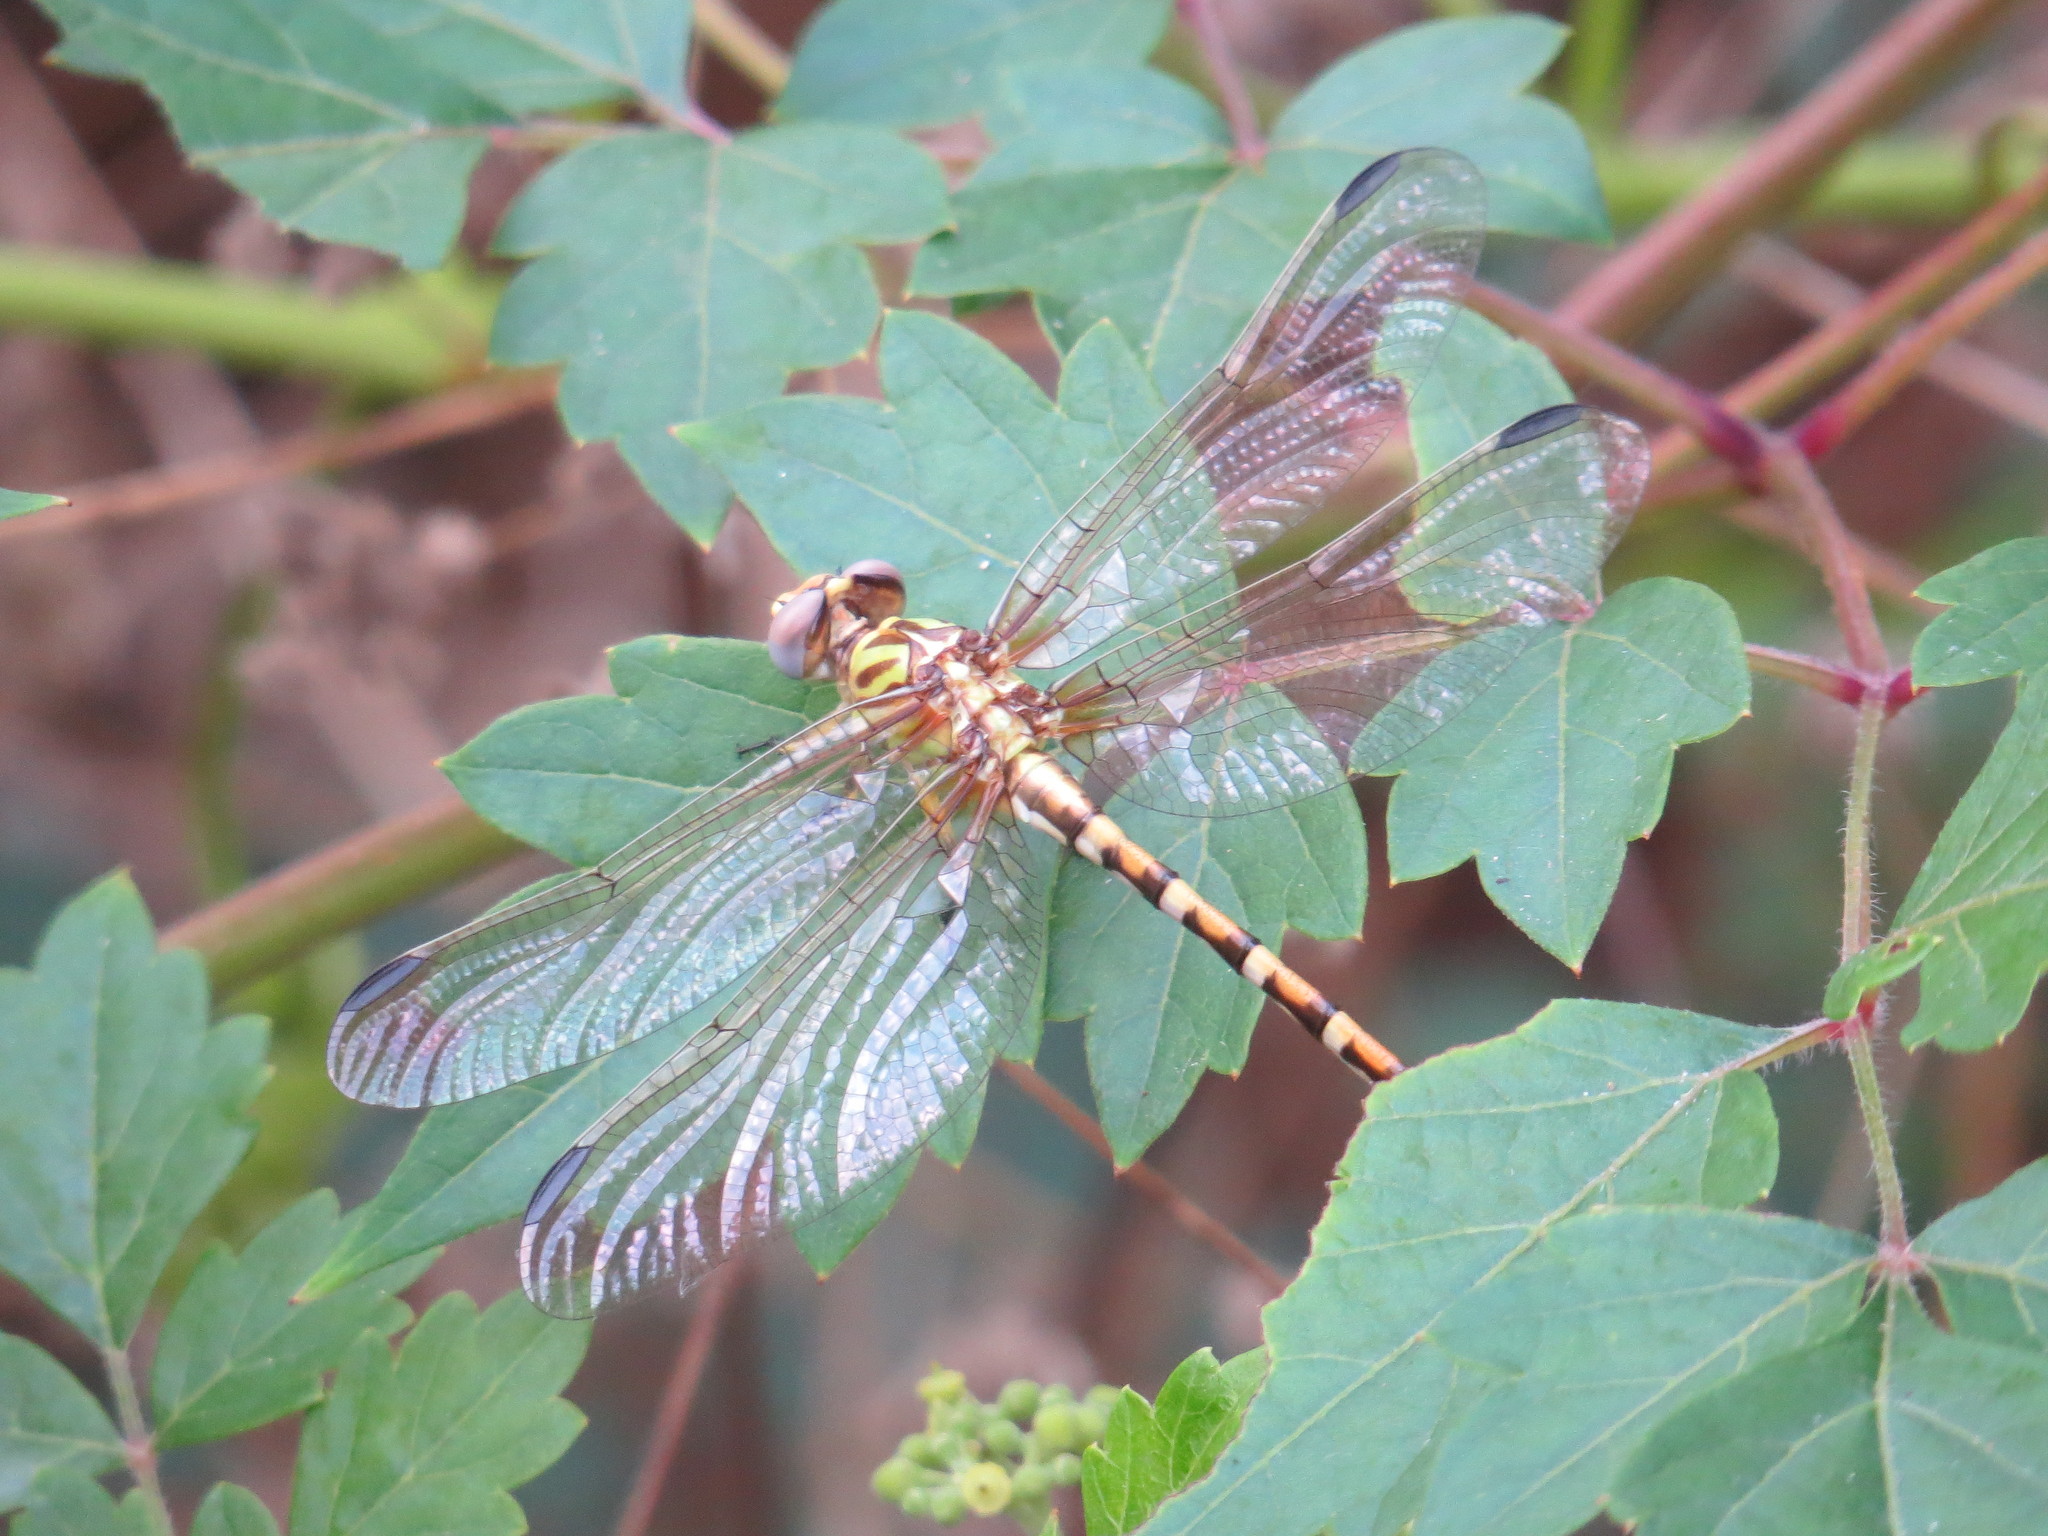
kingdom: Animalia
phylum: Arthropoda
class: Insecta
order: Odonata
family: Gomphidae
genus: Erpetogomphus
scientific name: Erpetogomphus designatus
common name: Eastern ringtail
